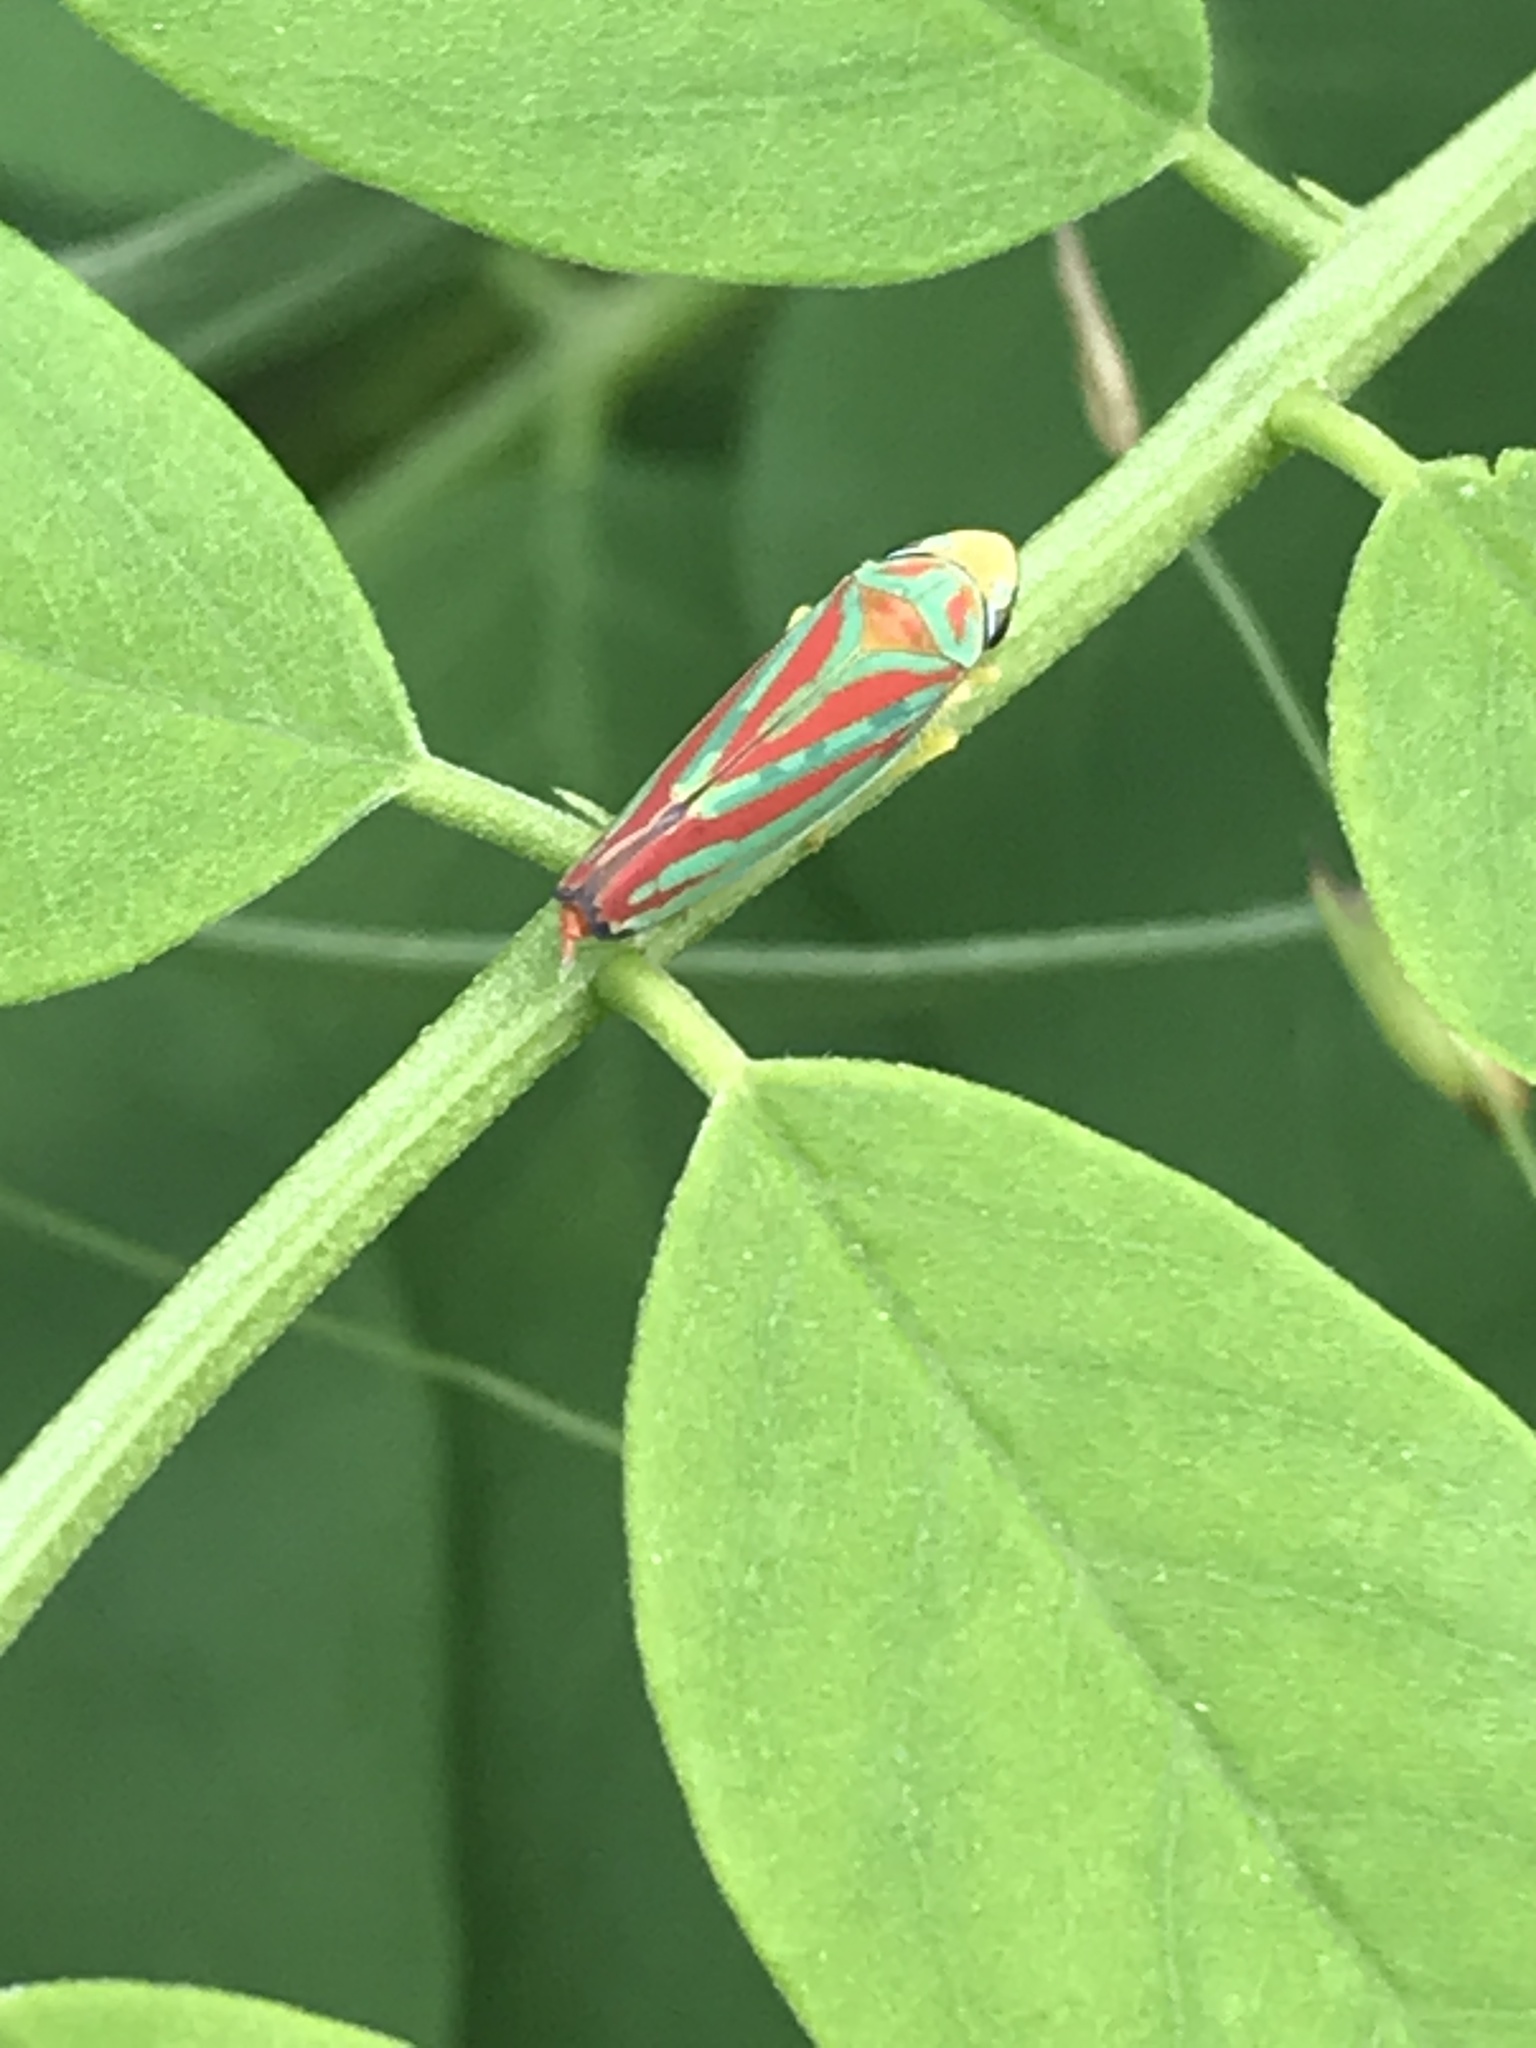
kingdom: Animalia
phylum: Arthropoda
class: Insecta
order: Hemiptera
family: Cicadellidae
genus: Graphocephala
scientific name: Graphocephala coccinea
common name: Candy-striped leafhopper
